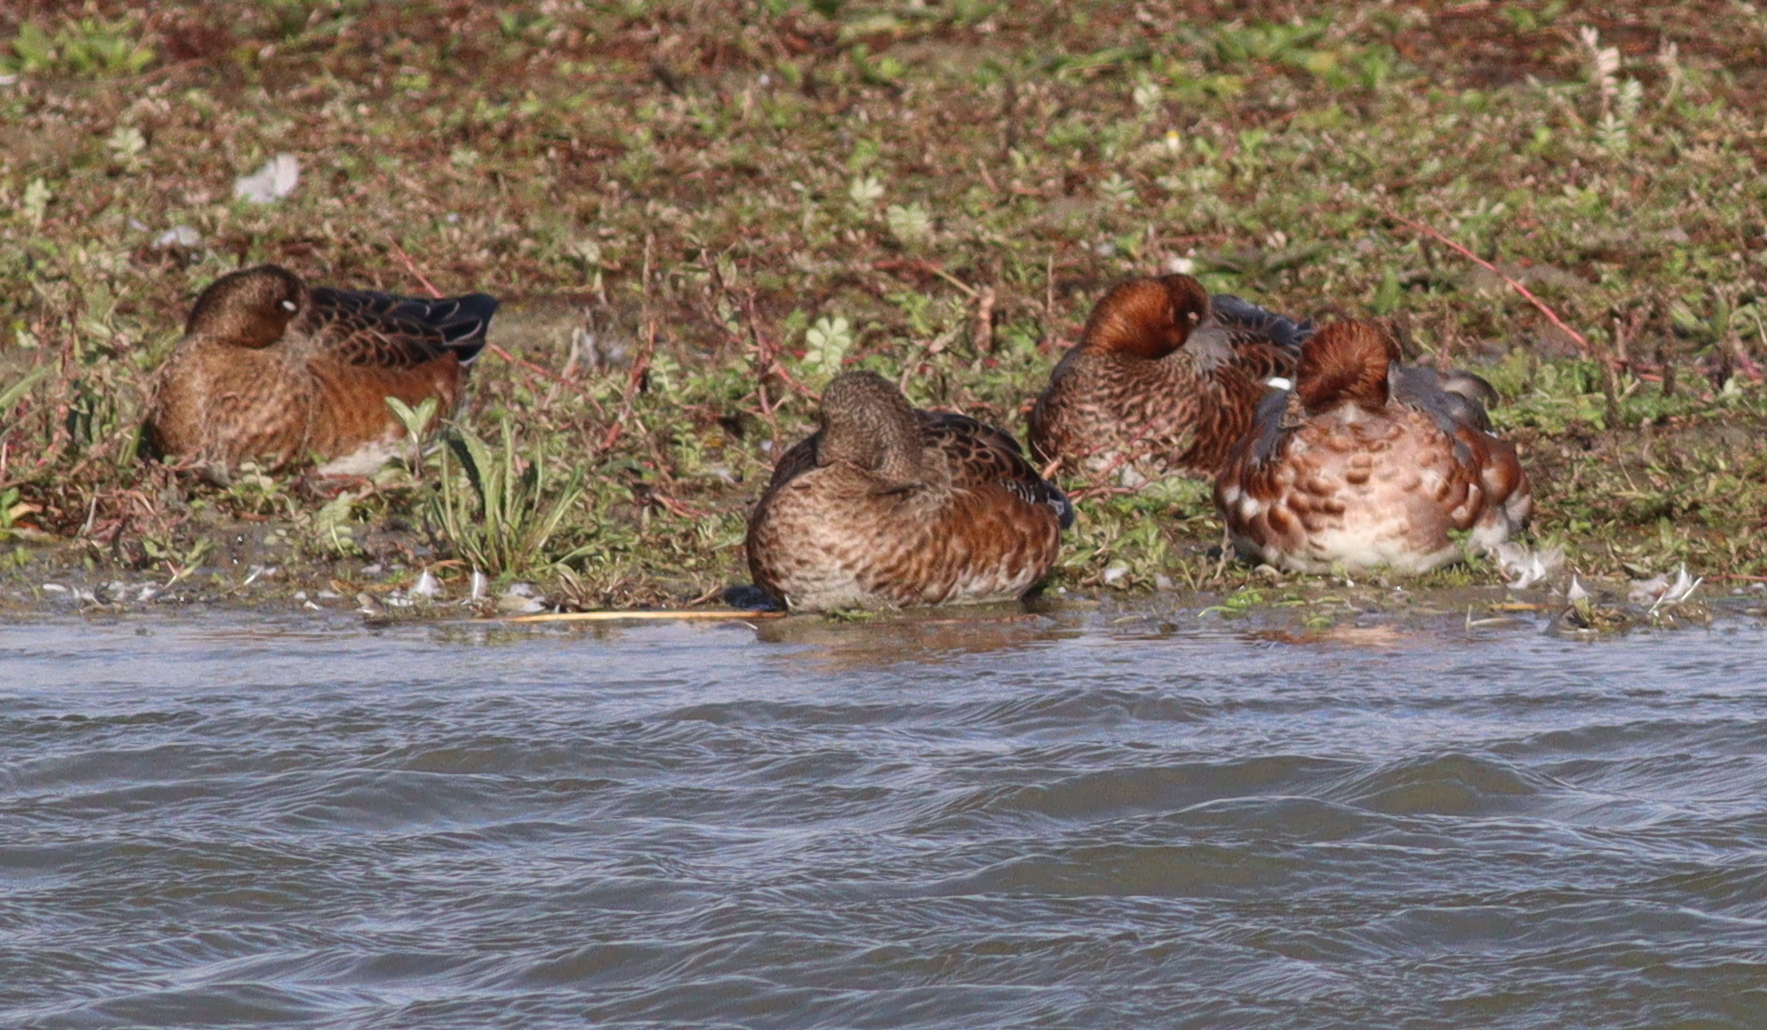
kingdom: Animalia
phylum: Chordata
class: Aves
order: Anseriformes
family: Anatidae
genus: Mareca
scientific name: Mareca penelope
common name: Eurasian wigeon
